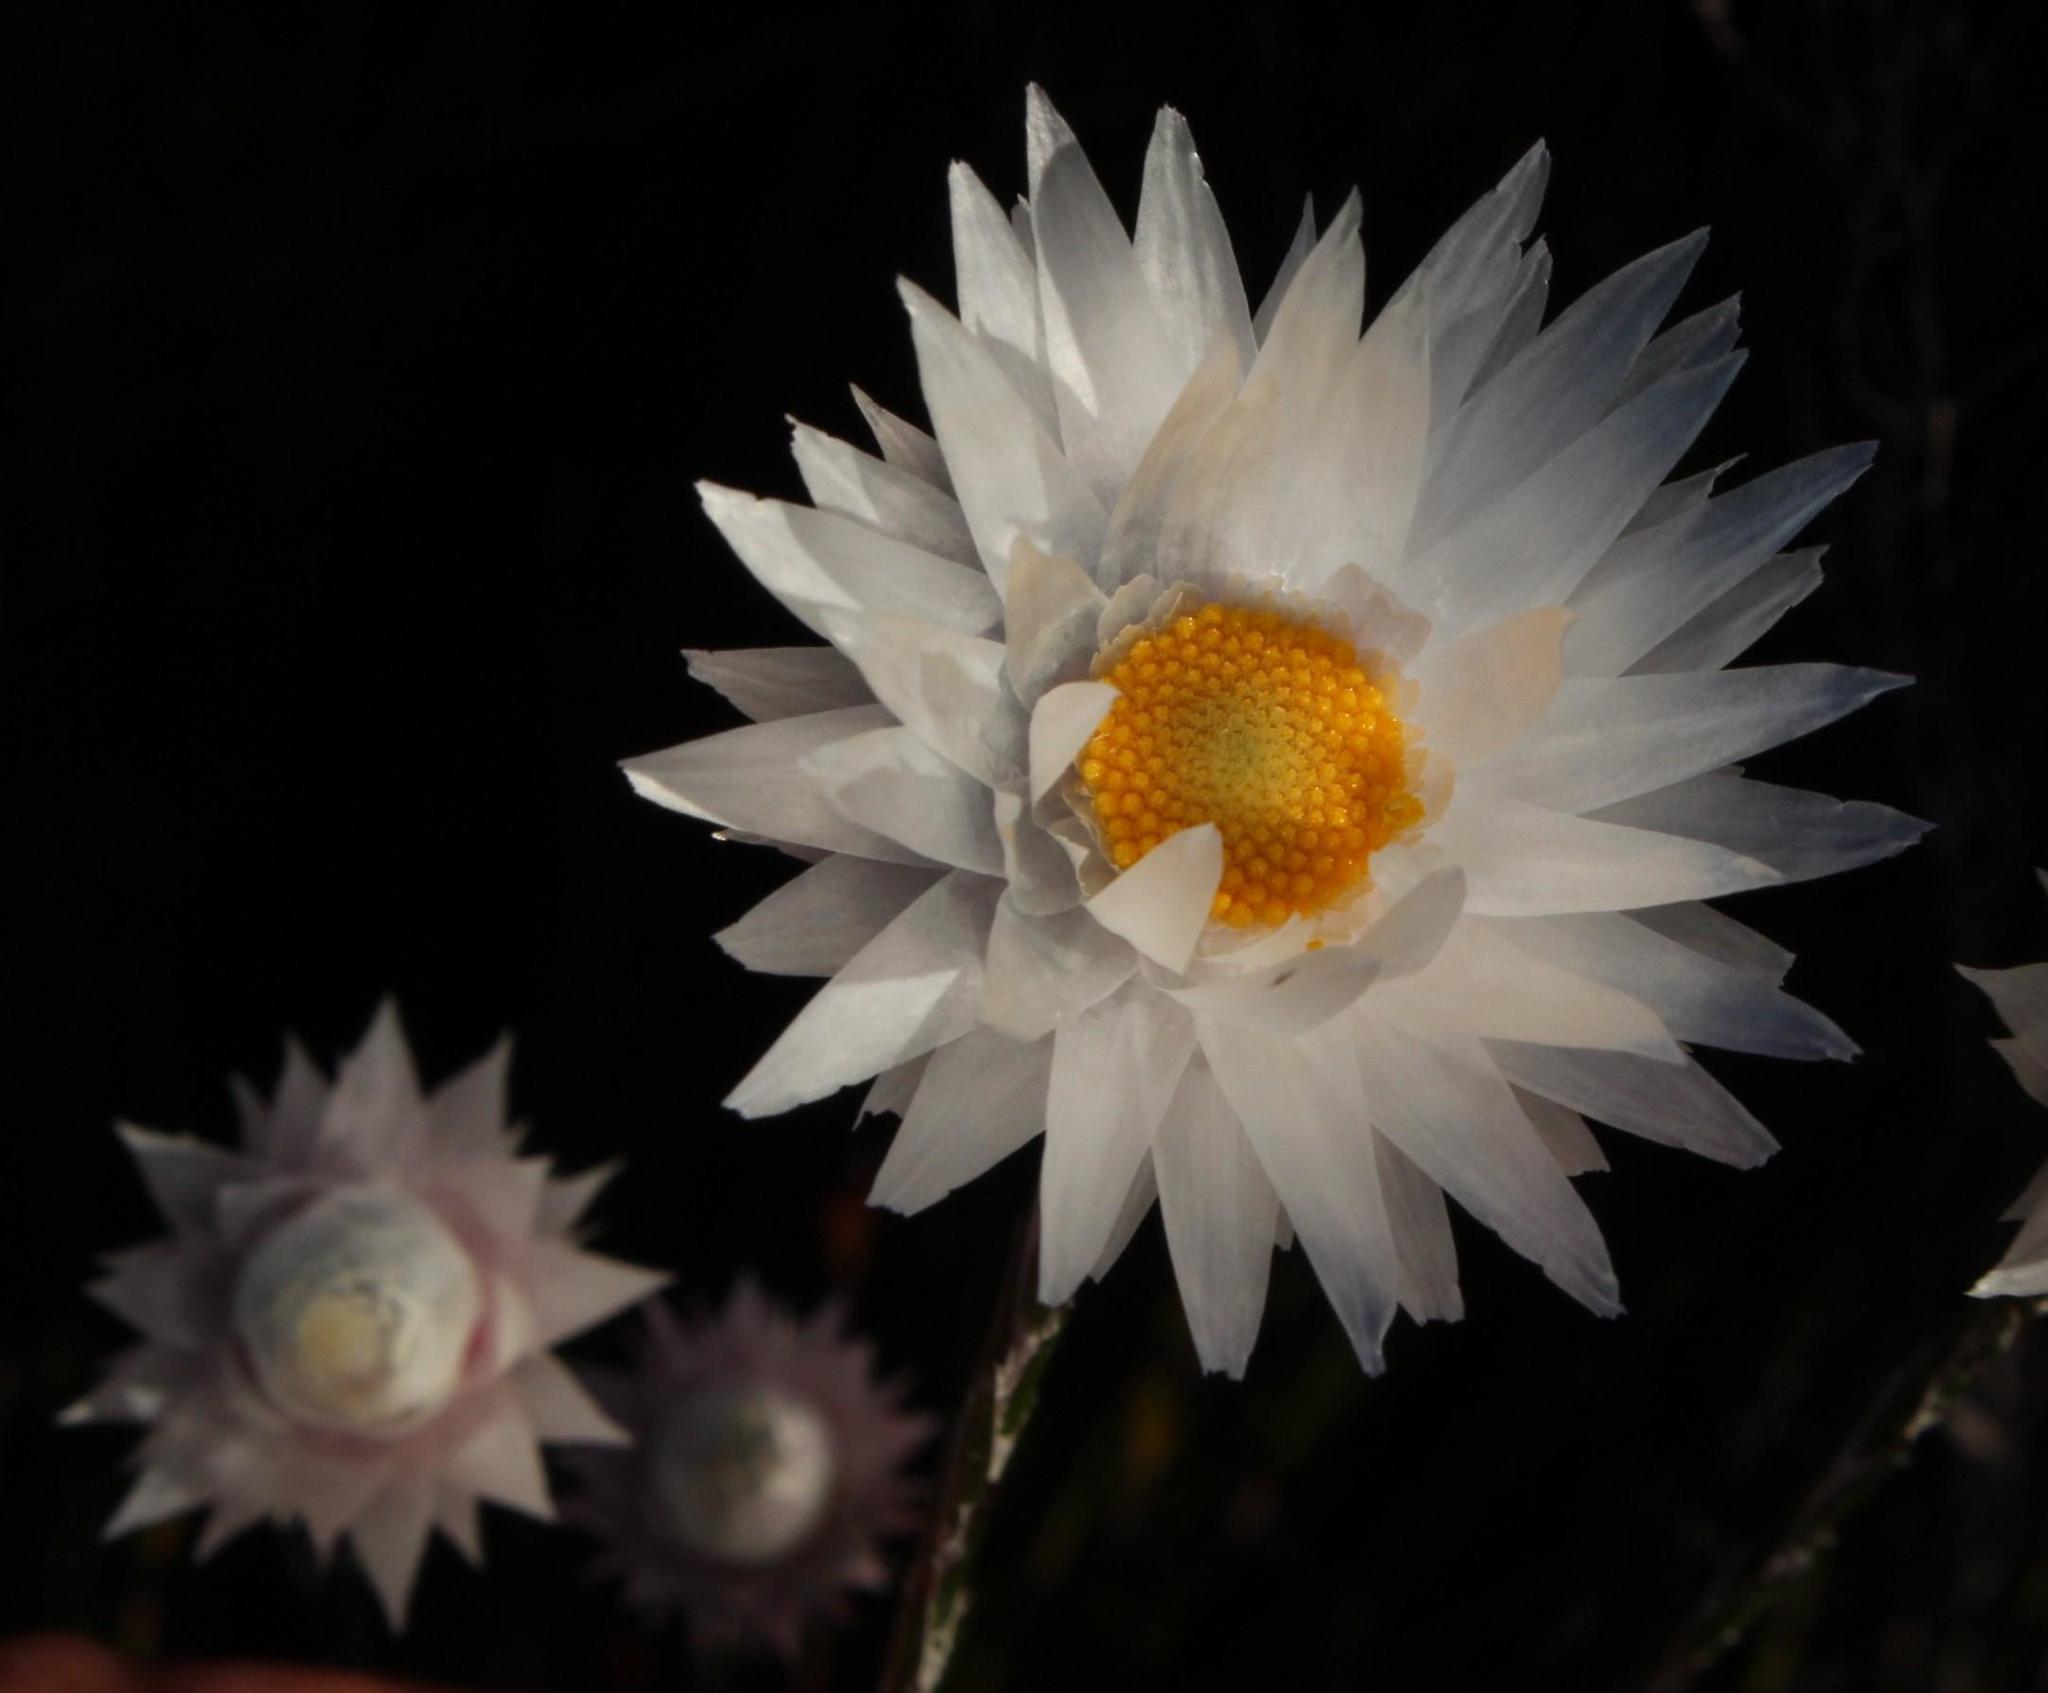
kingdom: Plantae
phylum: Tracheophyta
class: Magnoliopsida
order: Asterales
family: Asteraceae
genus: Edmondia
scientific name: Edmondia sesamoides
